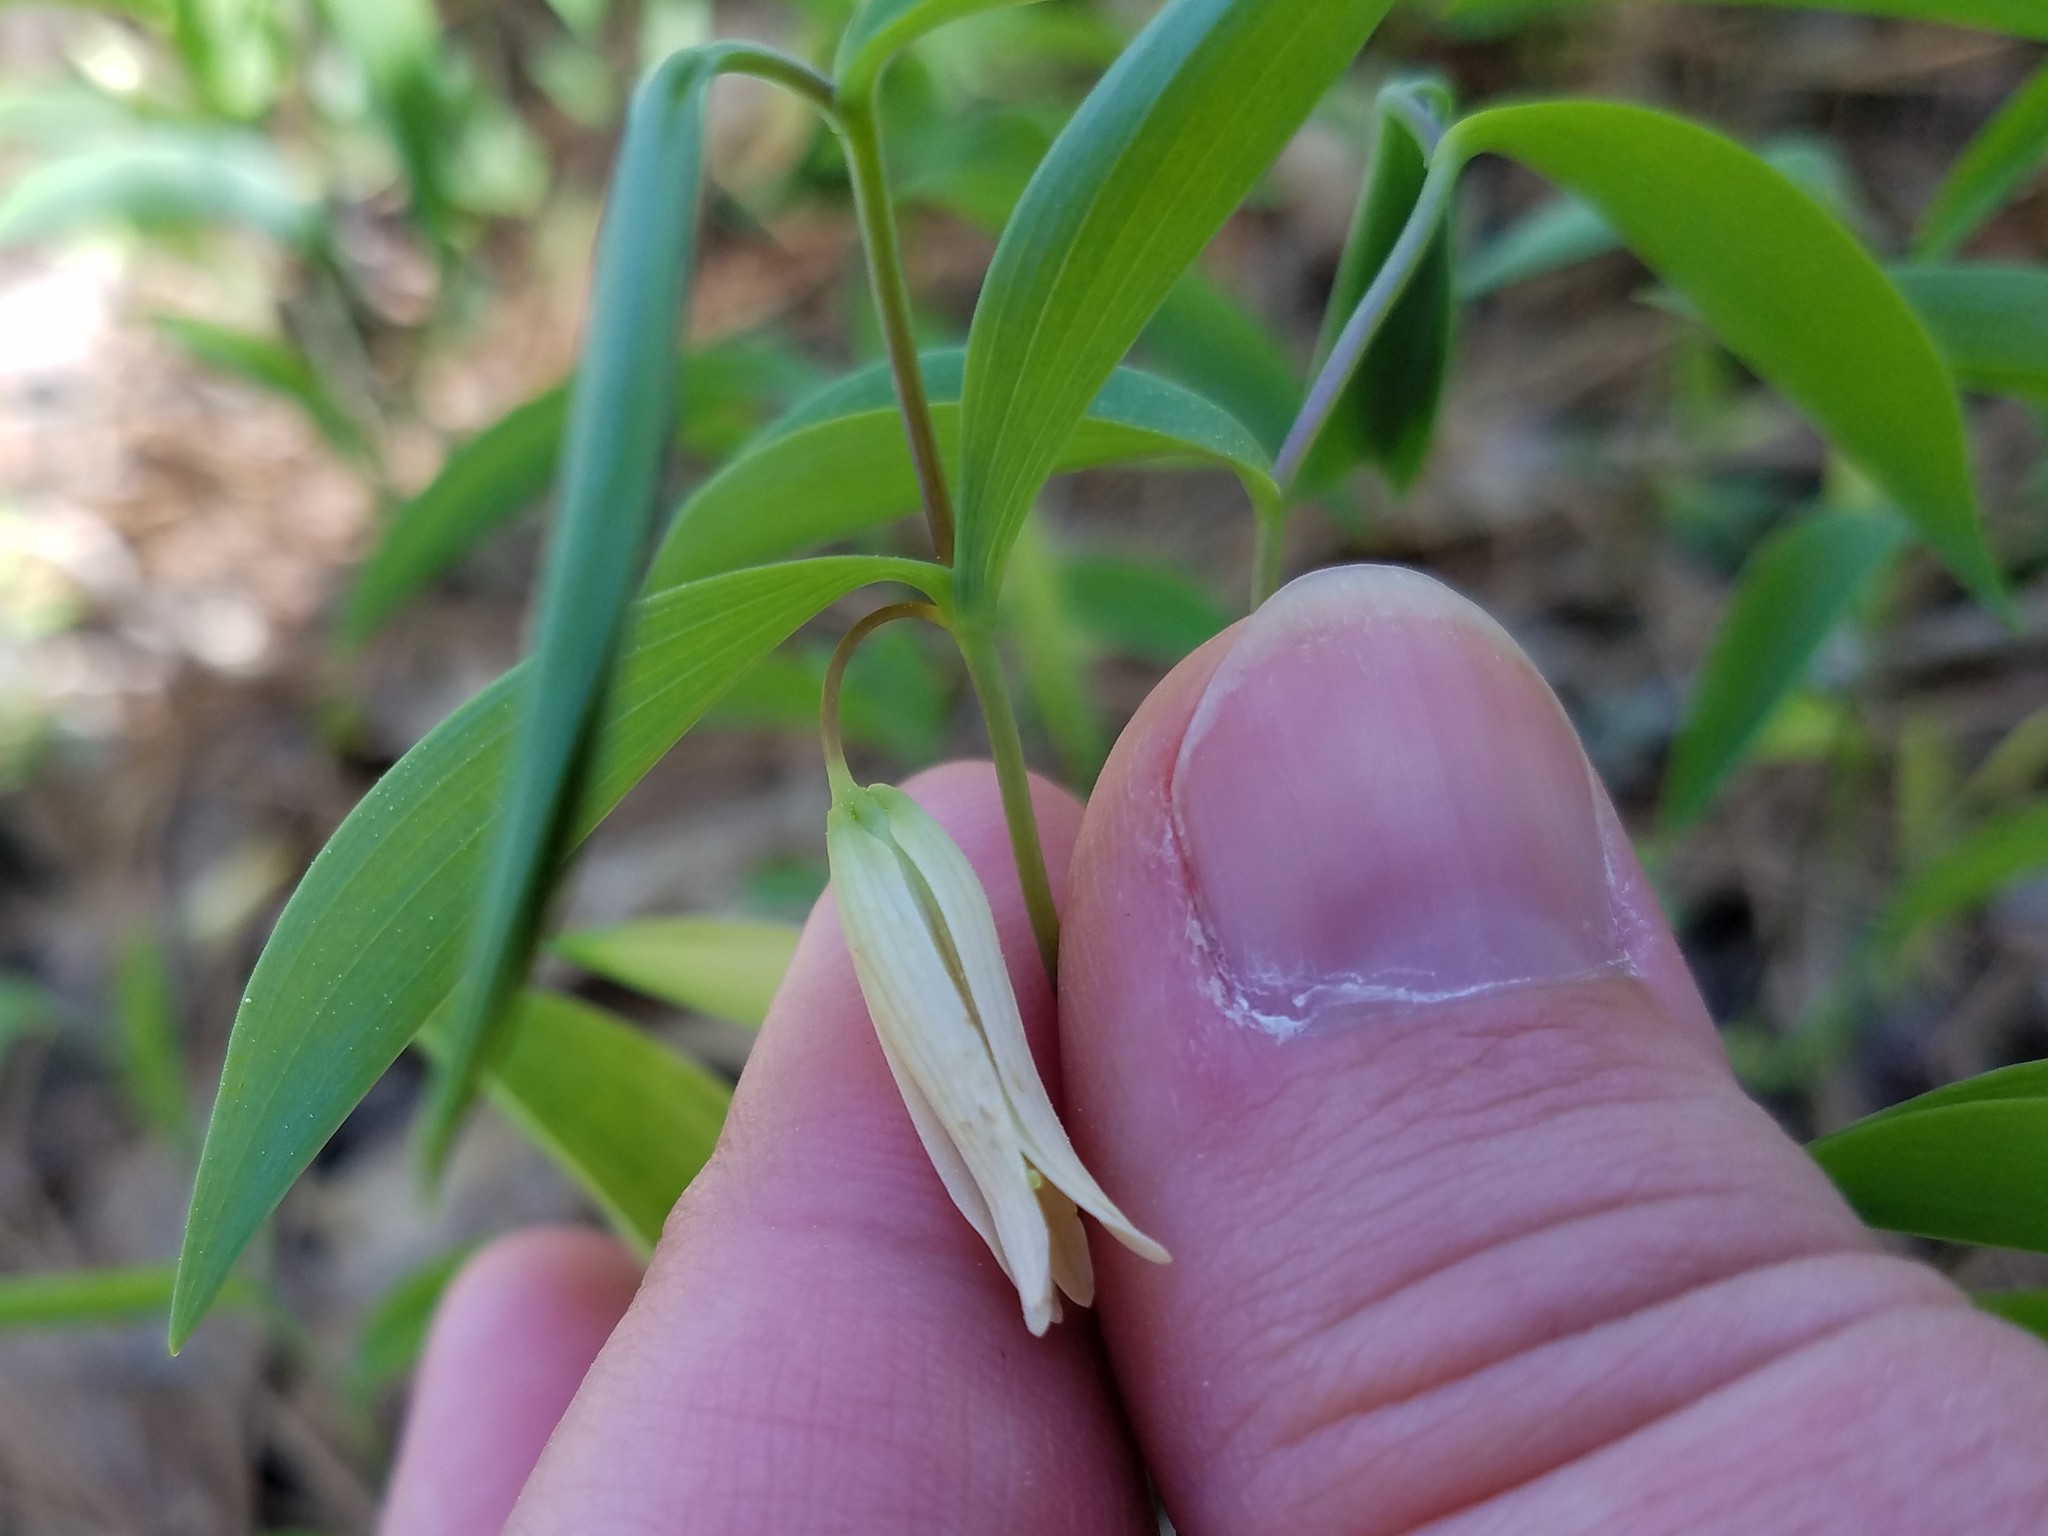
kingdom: Plantae
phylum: Tracheophyta
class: Liliopsida
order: Liliales
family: Colchicaceae
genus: Uvularia
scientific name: Uvularia sessilifolia
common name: Straw-lily
